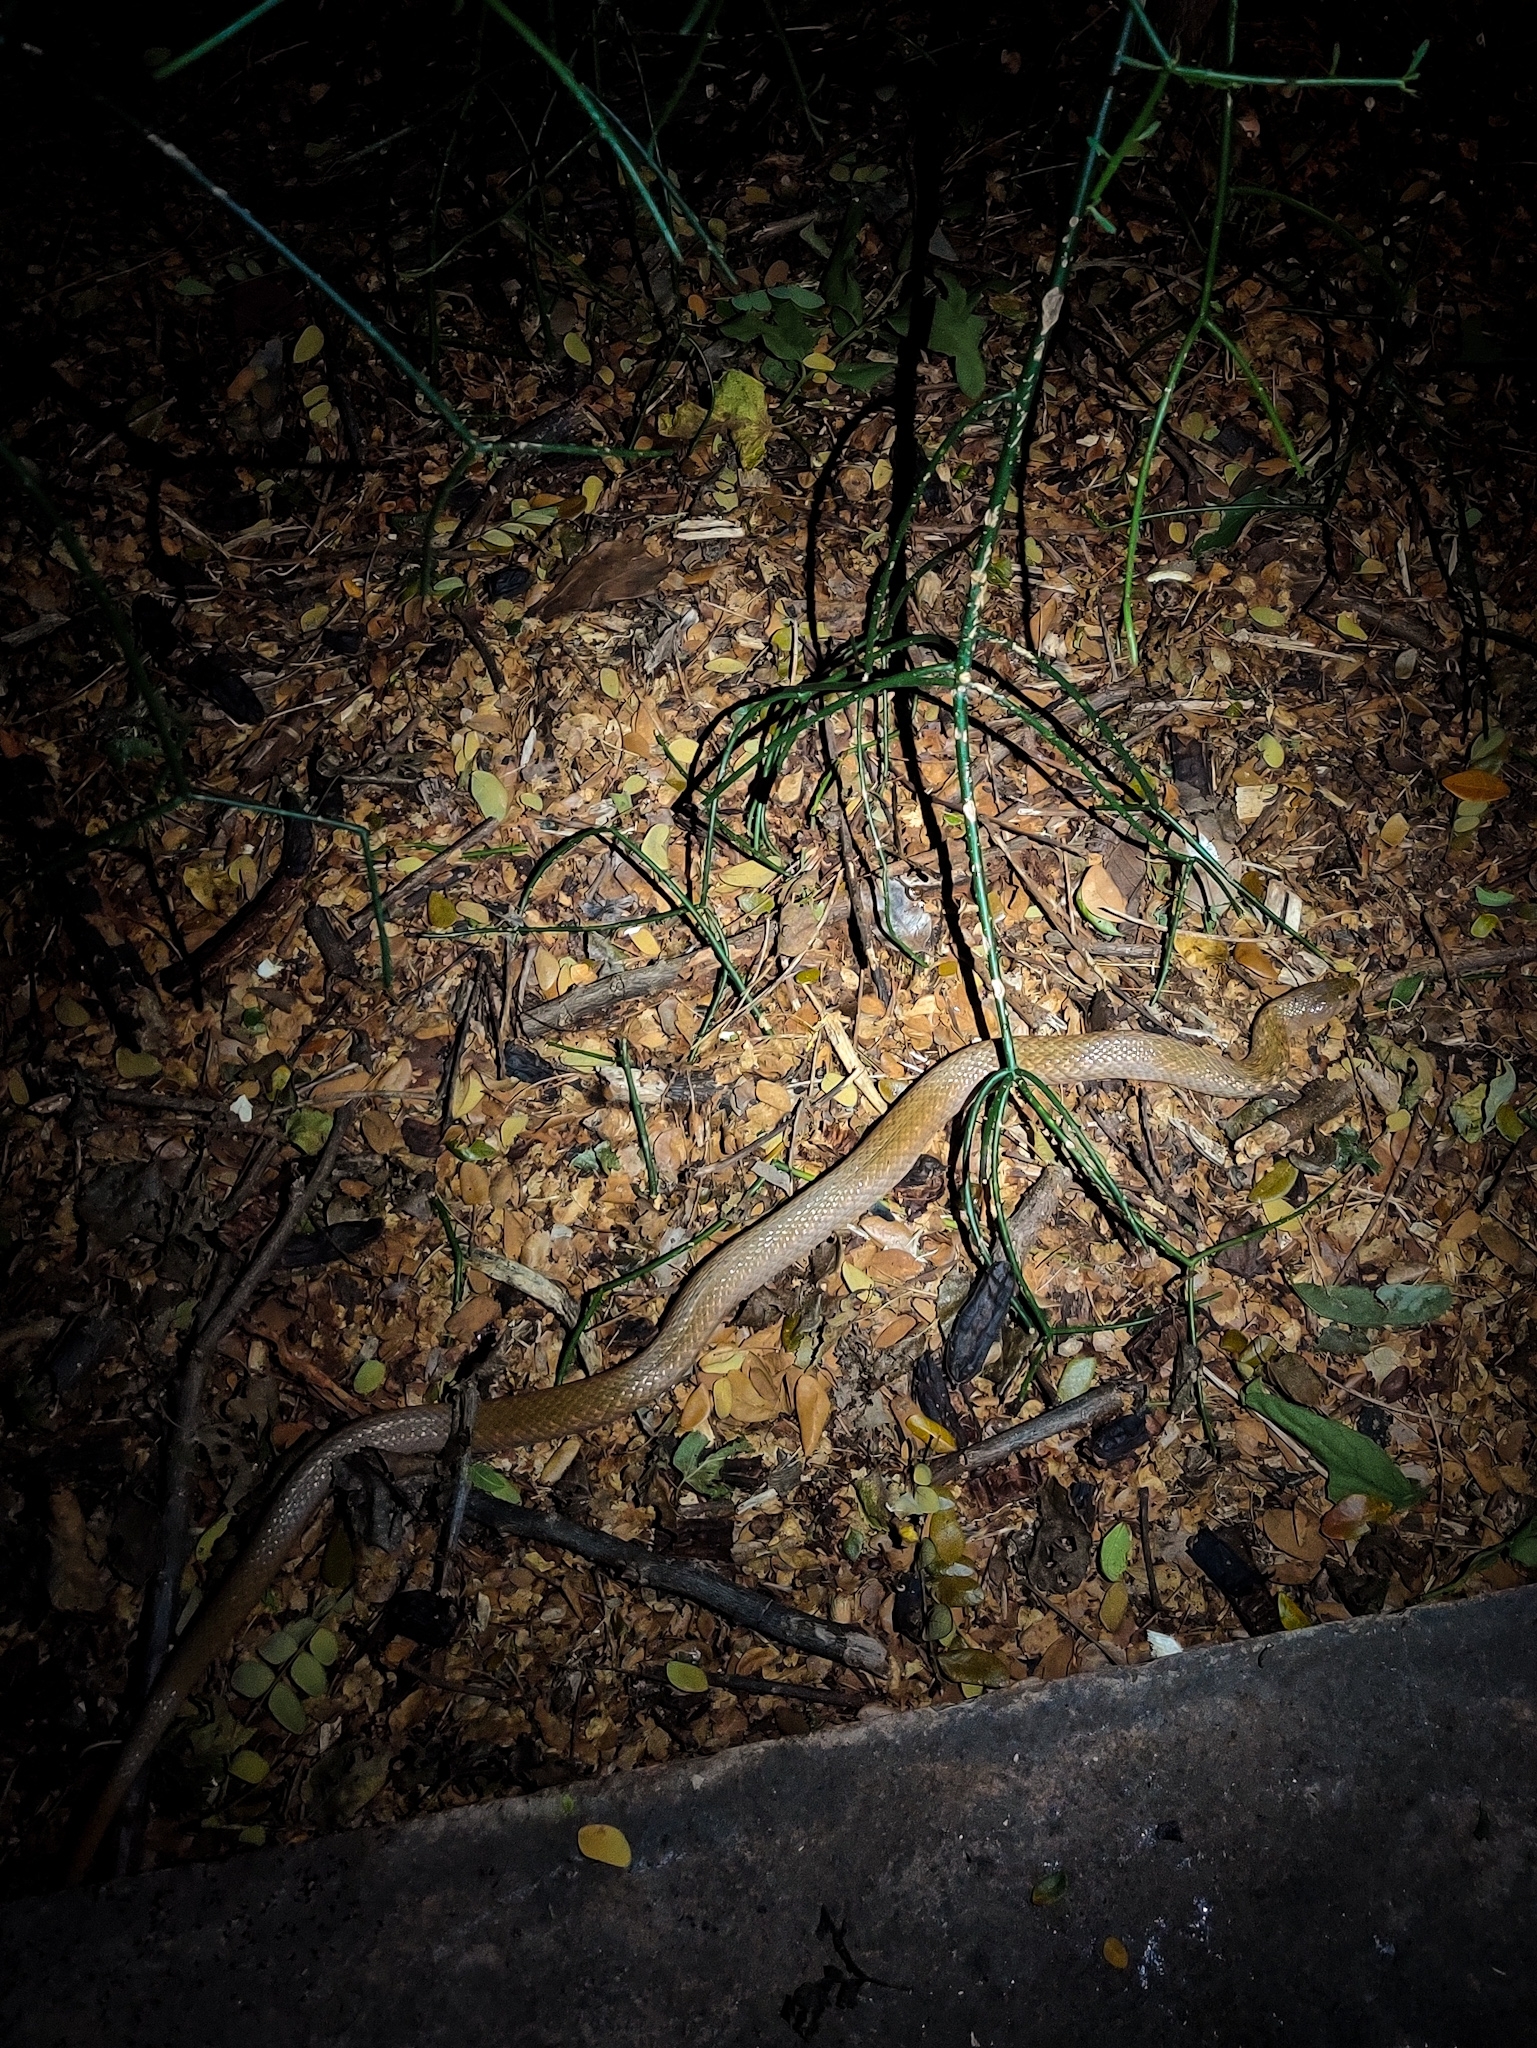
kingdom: Animalia
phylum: Chordata
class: Squamata
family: Colubridae
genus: Fowlea
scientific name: Fowlea piscator
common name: Asiatic water snake
